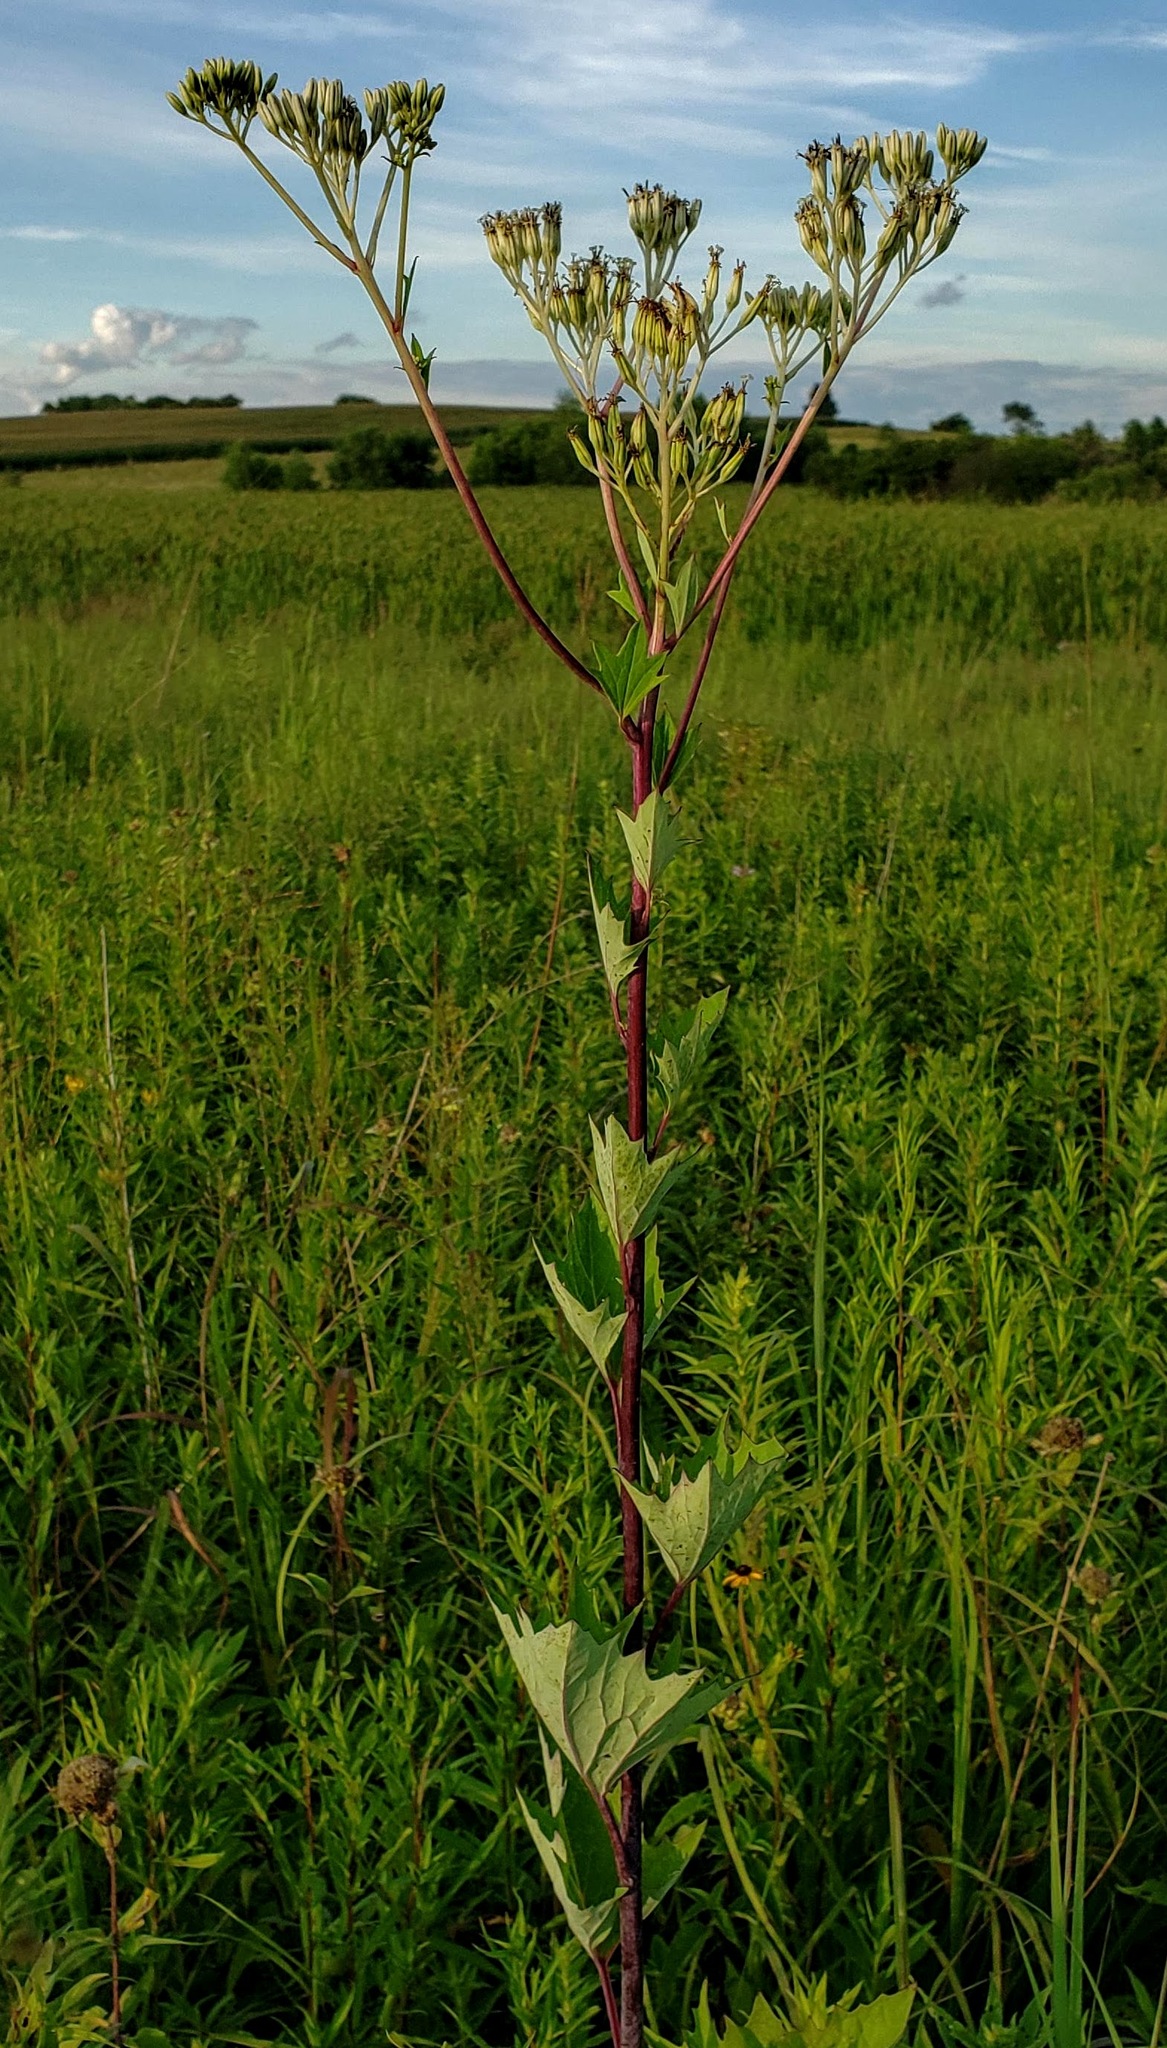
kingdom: Plantae
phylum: Tracheophyta
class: Magnoliopsida
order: Asterales
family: Asteraceae
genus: Arnoglossum
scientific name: Arnoglossum atriplicifolium
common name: Pale indian-plantain
